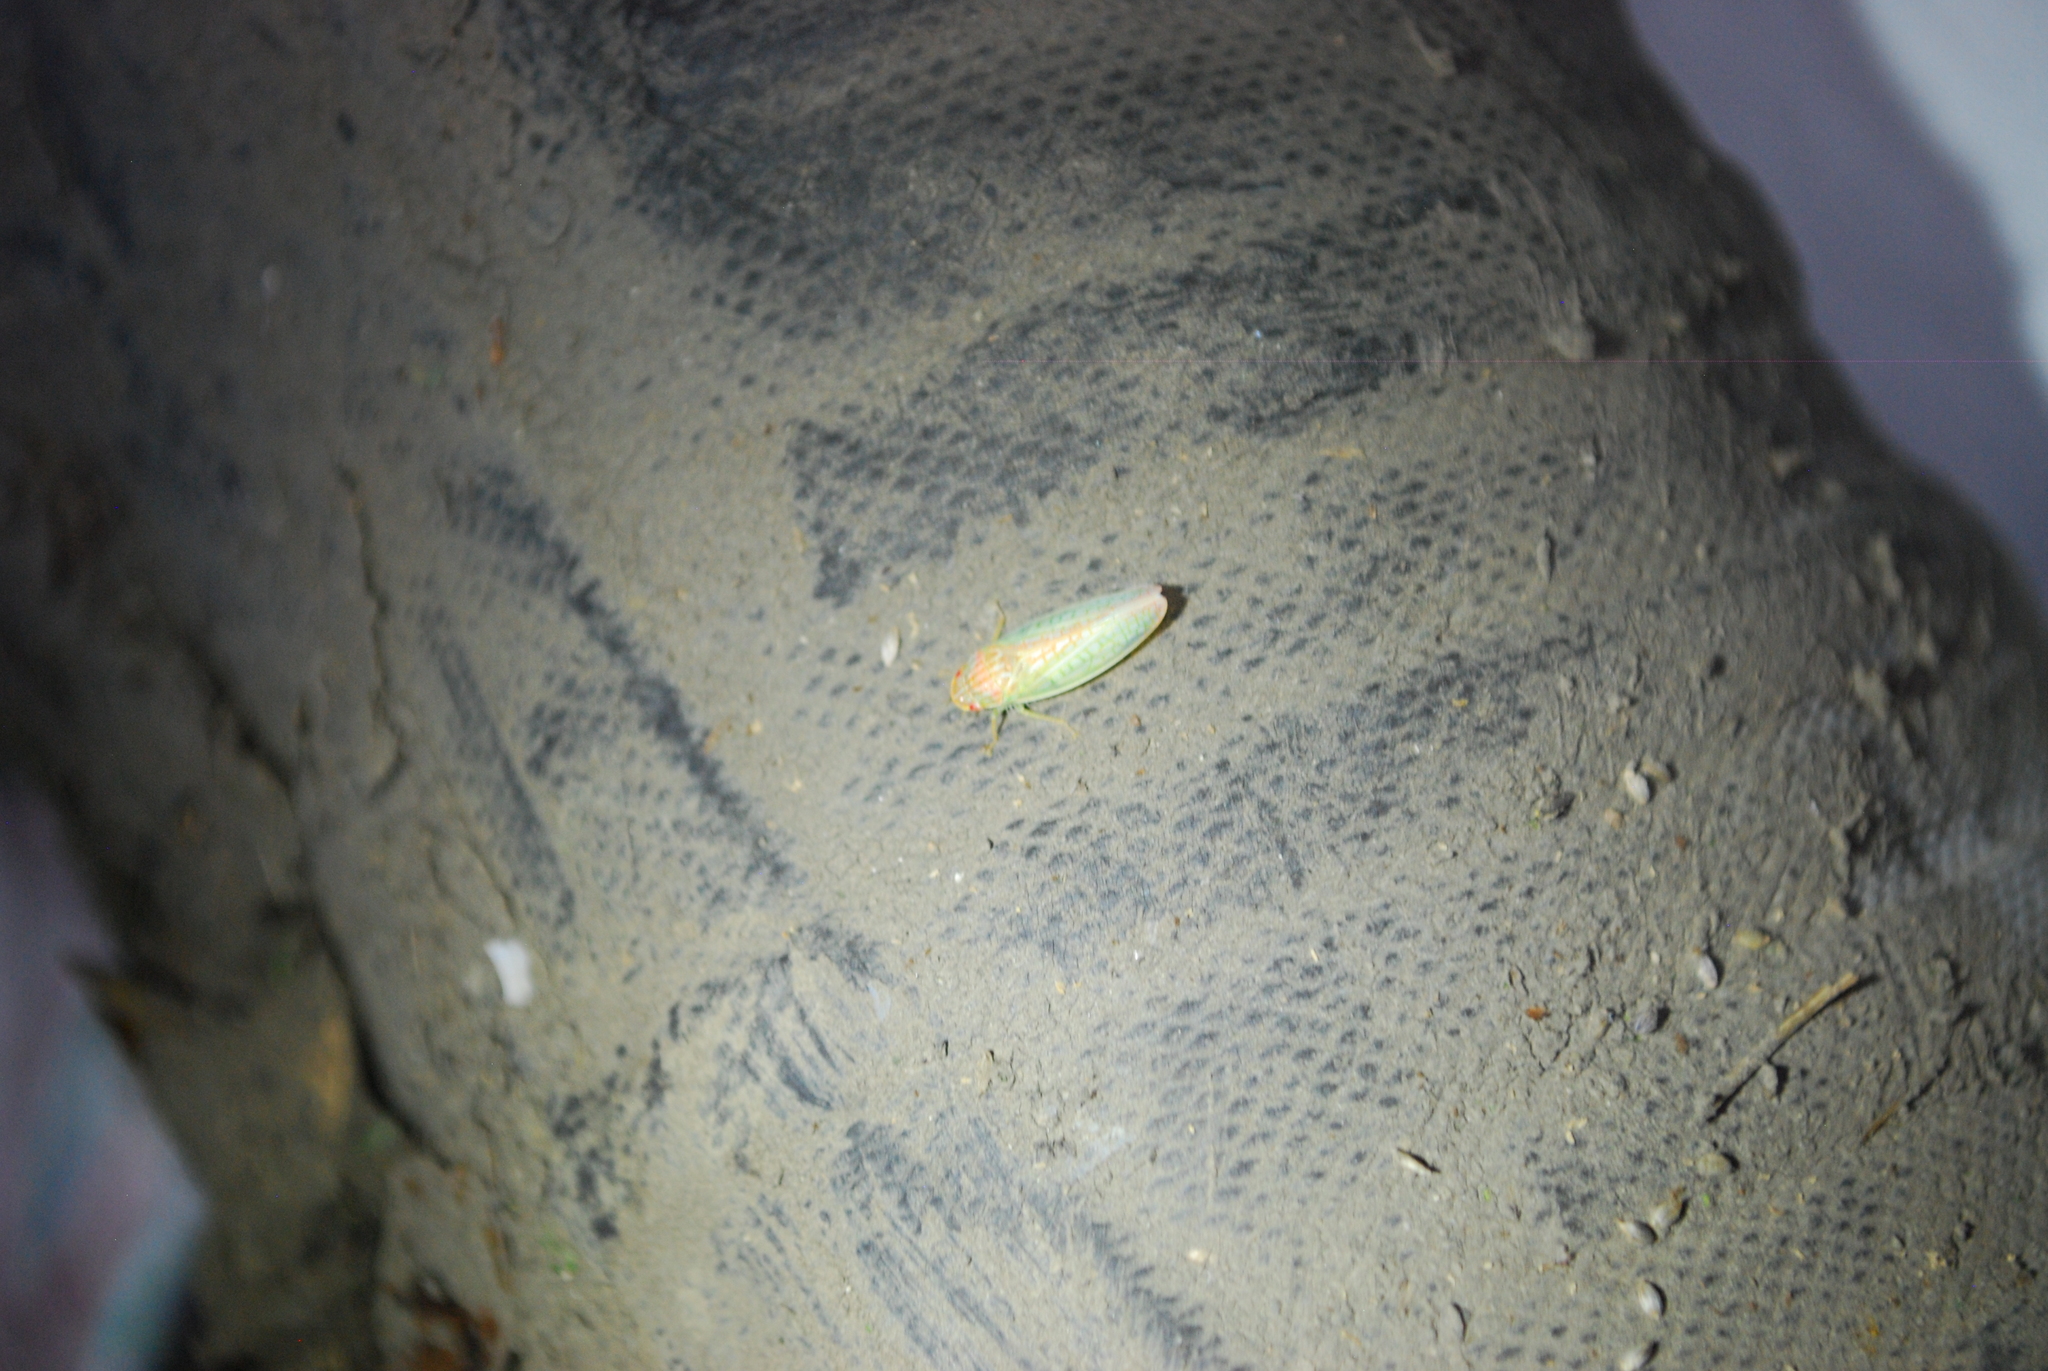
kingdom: Animalia
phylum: Arthropoda
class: Insecta
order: Hemiptera
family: Cicadellidae
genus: Gyponana
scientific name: Gyponana octolineata
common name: Eight-lined leafhopper
